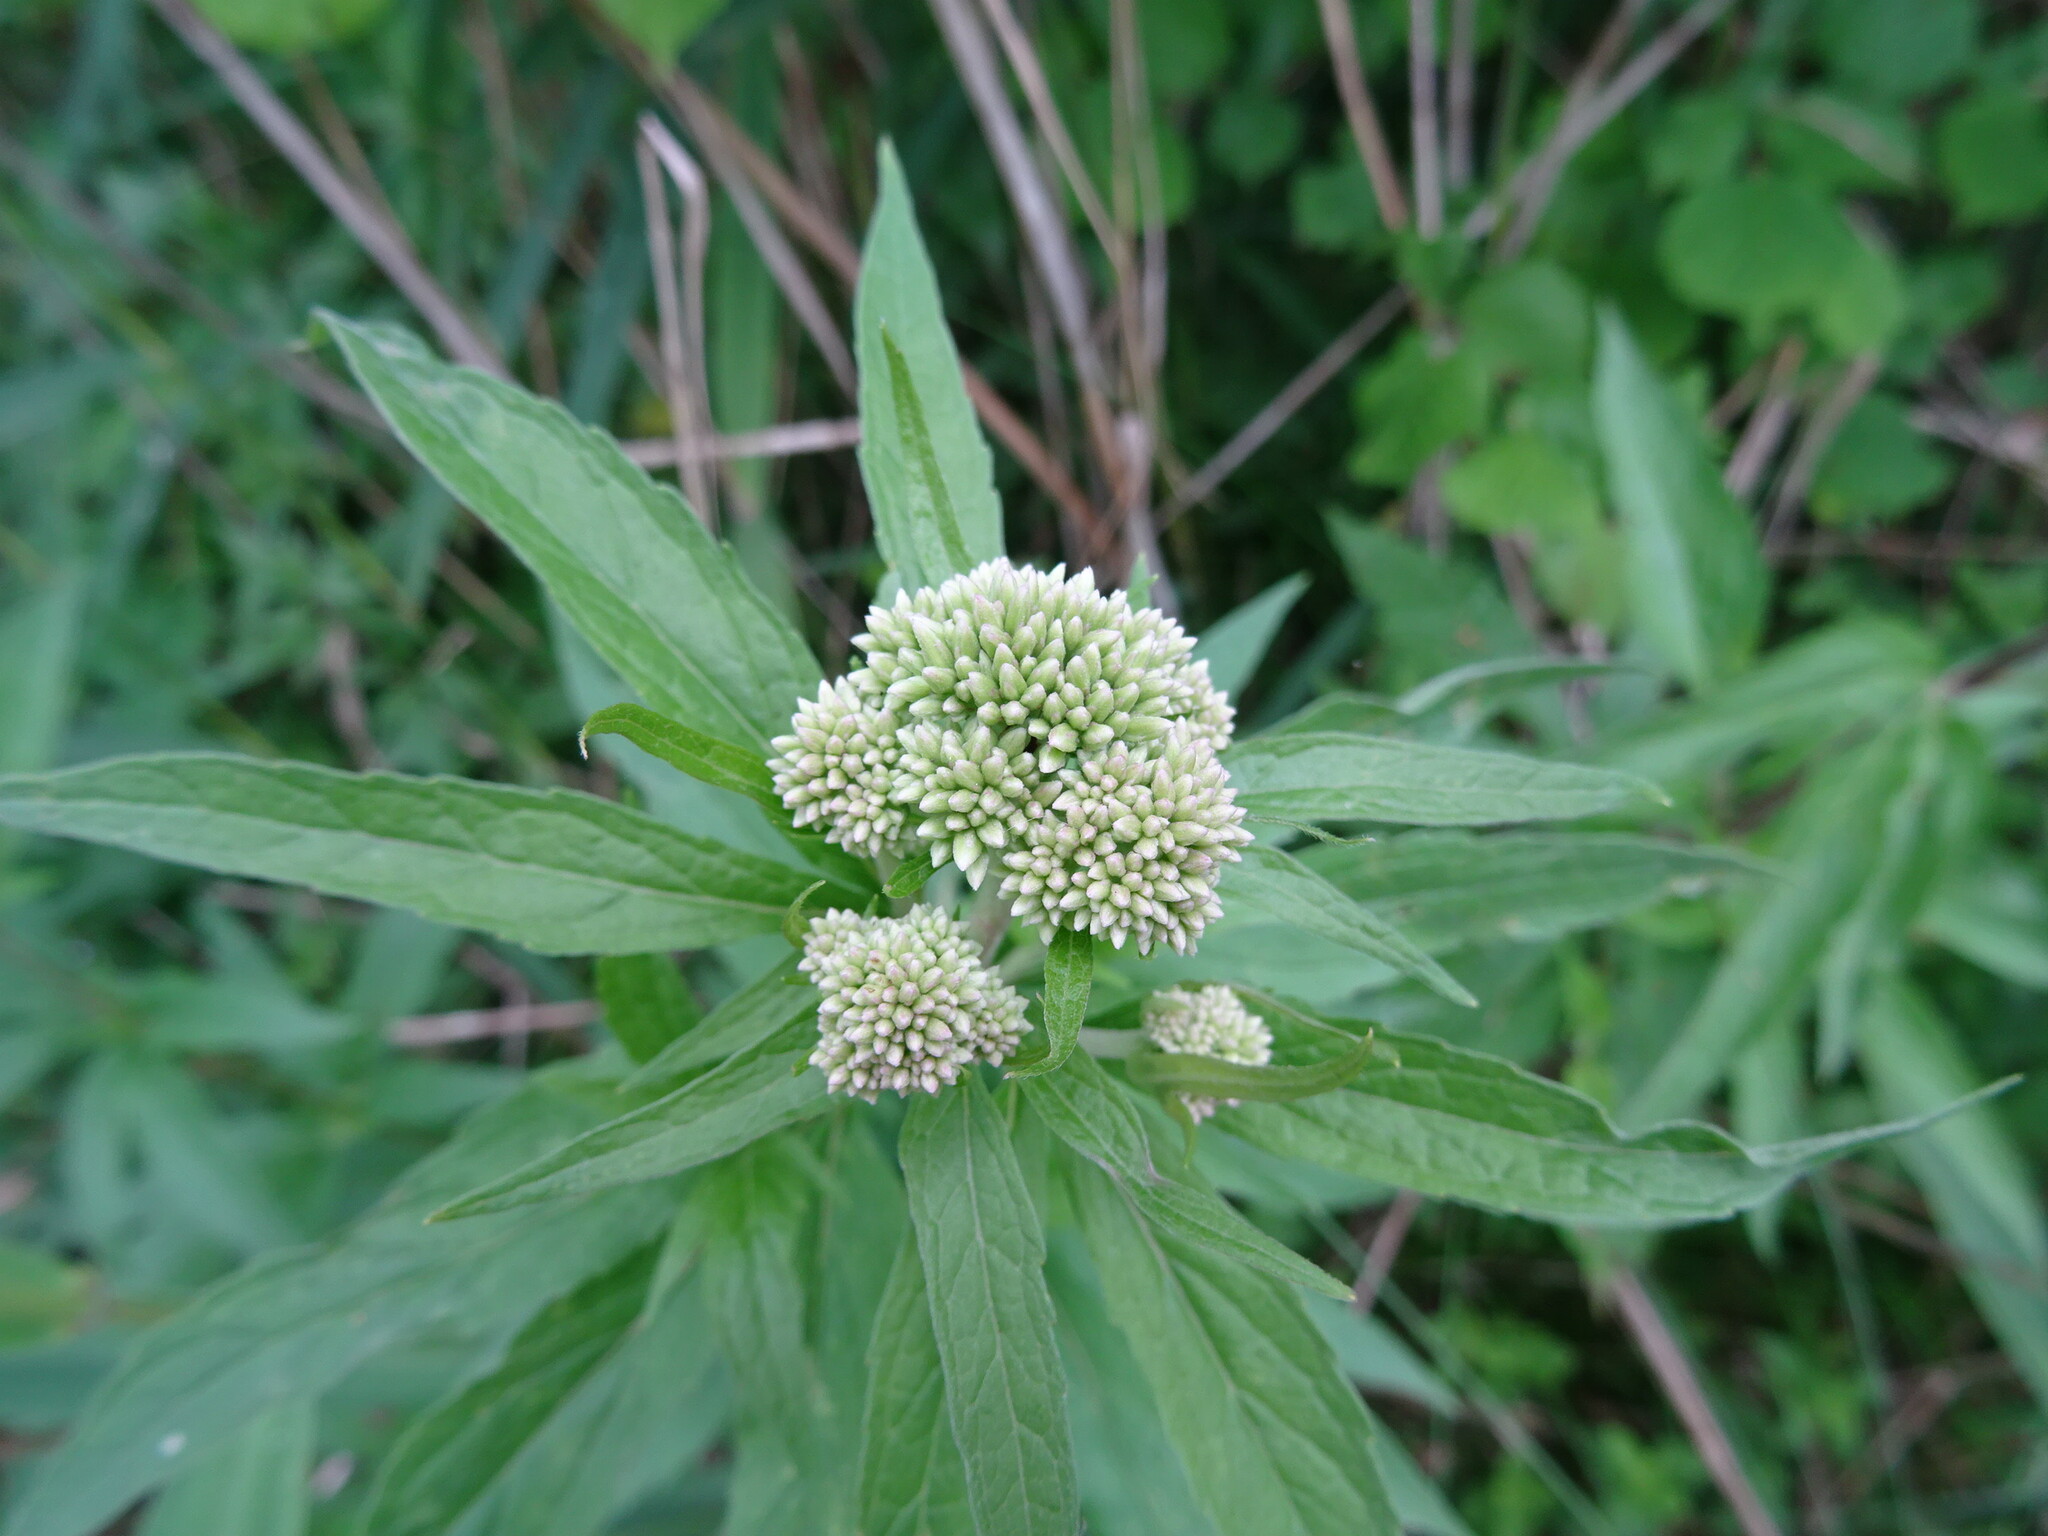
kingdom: Plantae
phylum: Tracheophyta
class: Magnoliopsida
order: Asterales
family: Asteraceae
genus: Eupatorium
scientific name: Eupatorium cannabinum
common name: Hemp-agrimony
